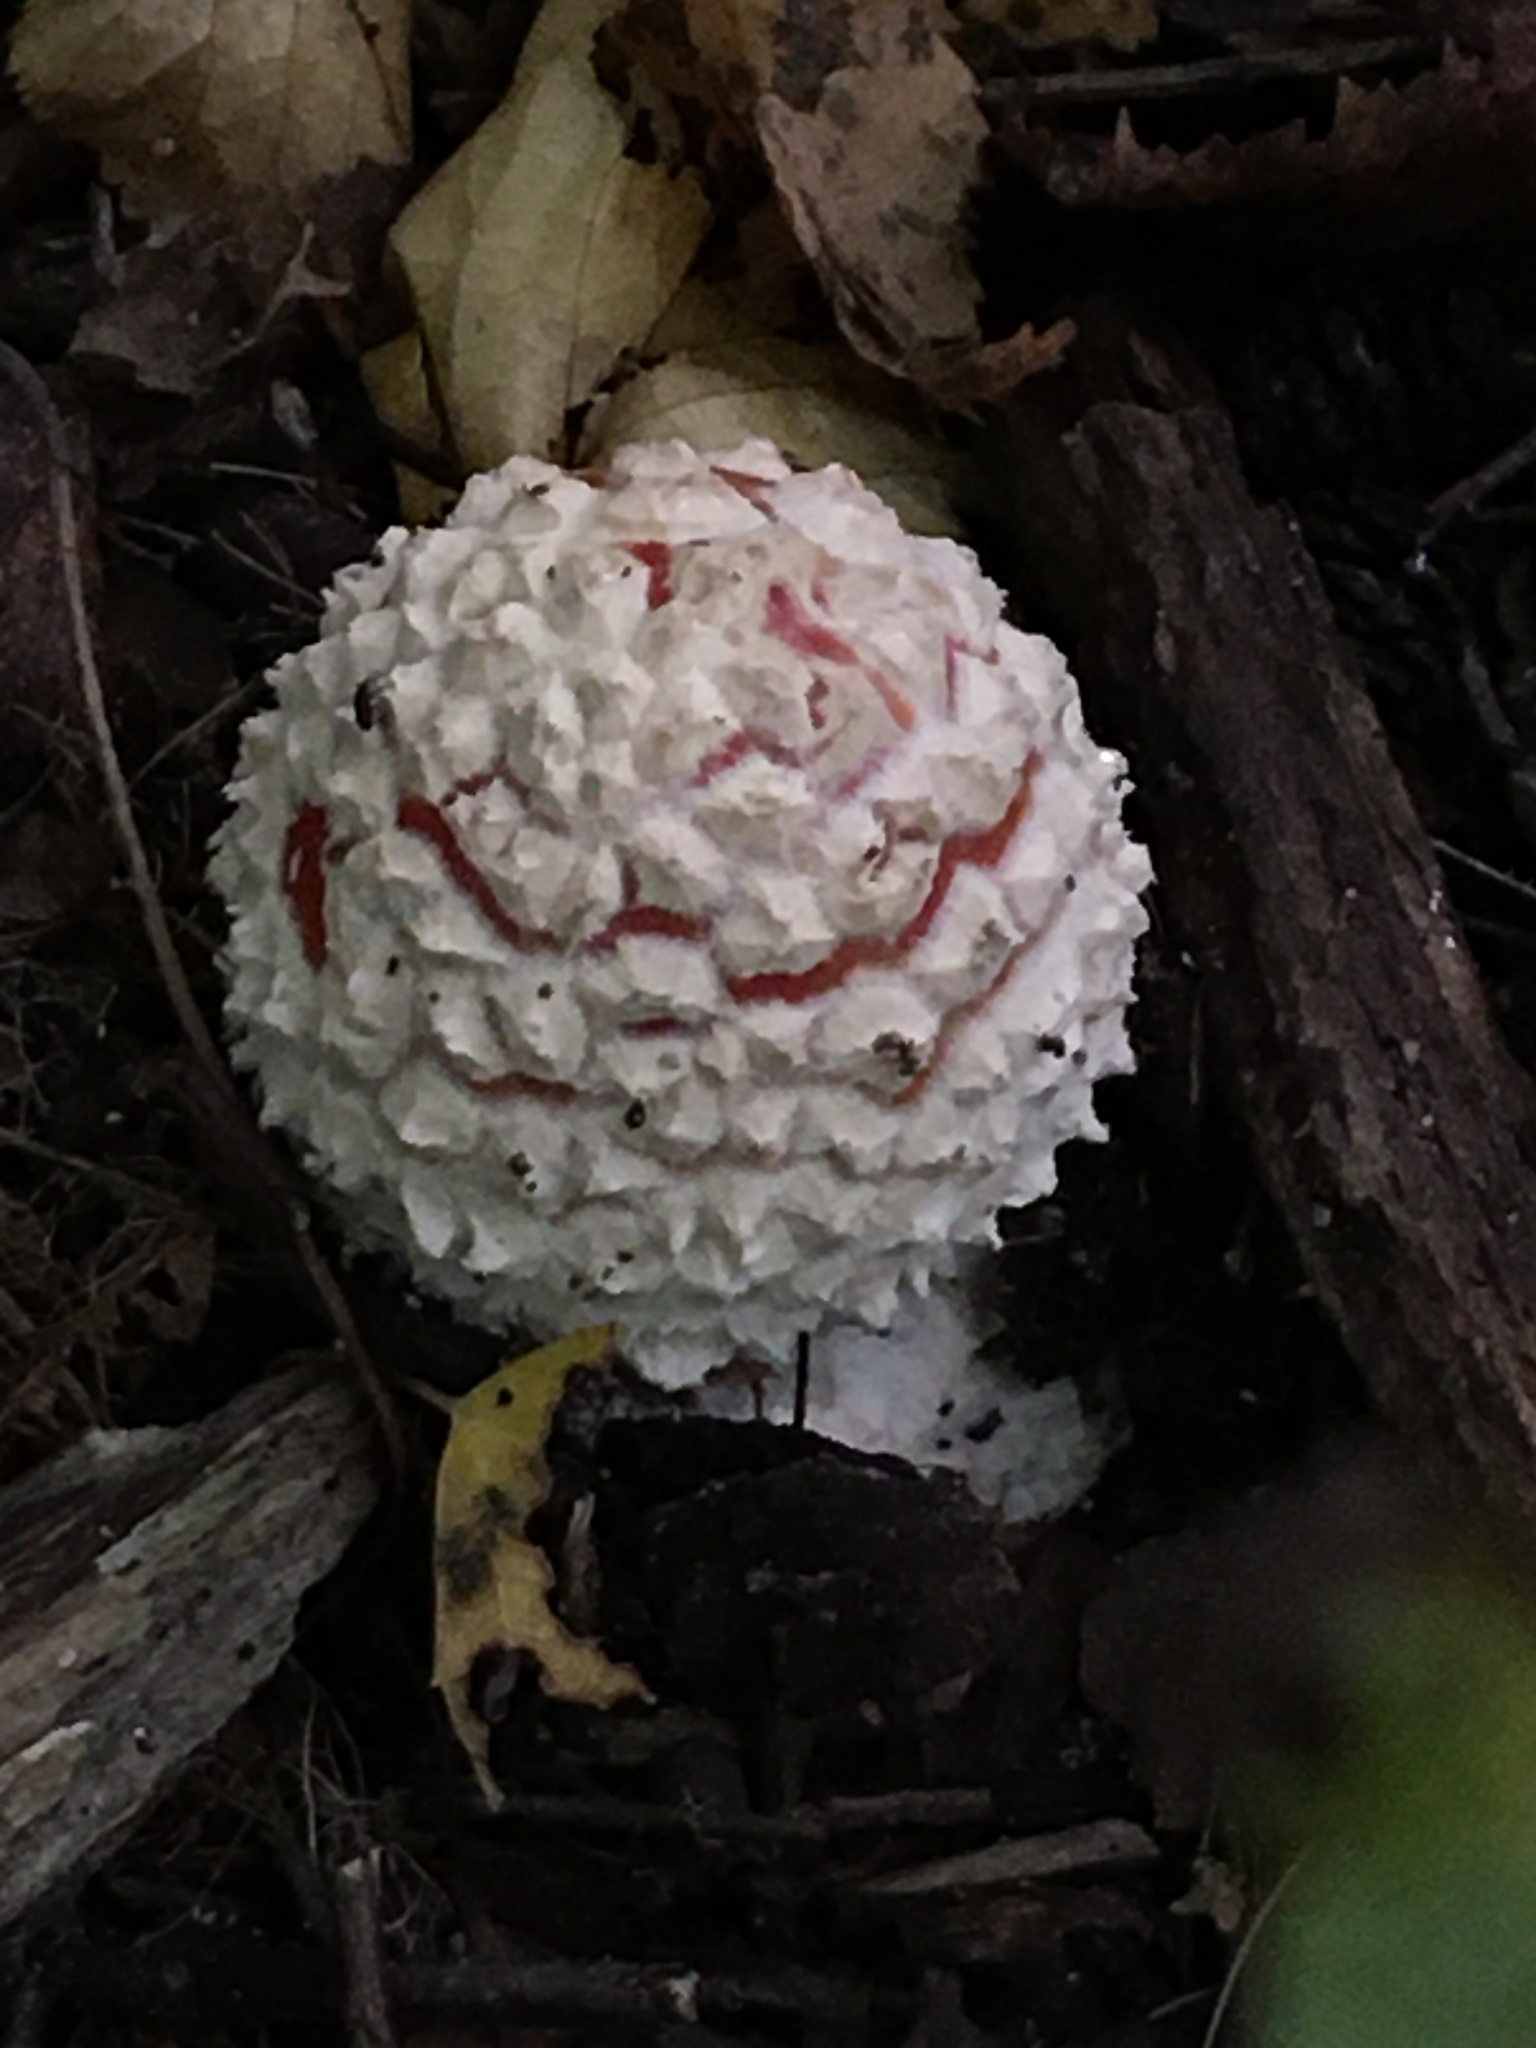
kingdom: Fungi
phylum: Basidiomycota
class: Agaricomycetes
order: Agaricales
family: Amanitaceae
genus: Amanita
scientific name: Amanita muscaria
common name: Fly agaric
